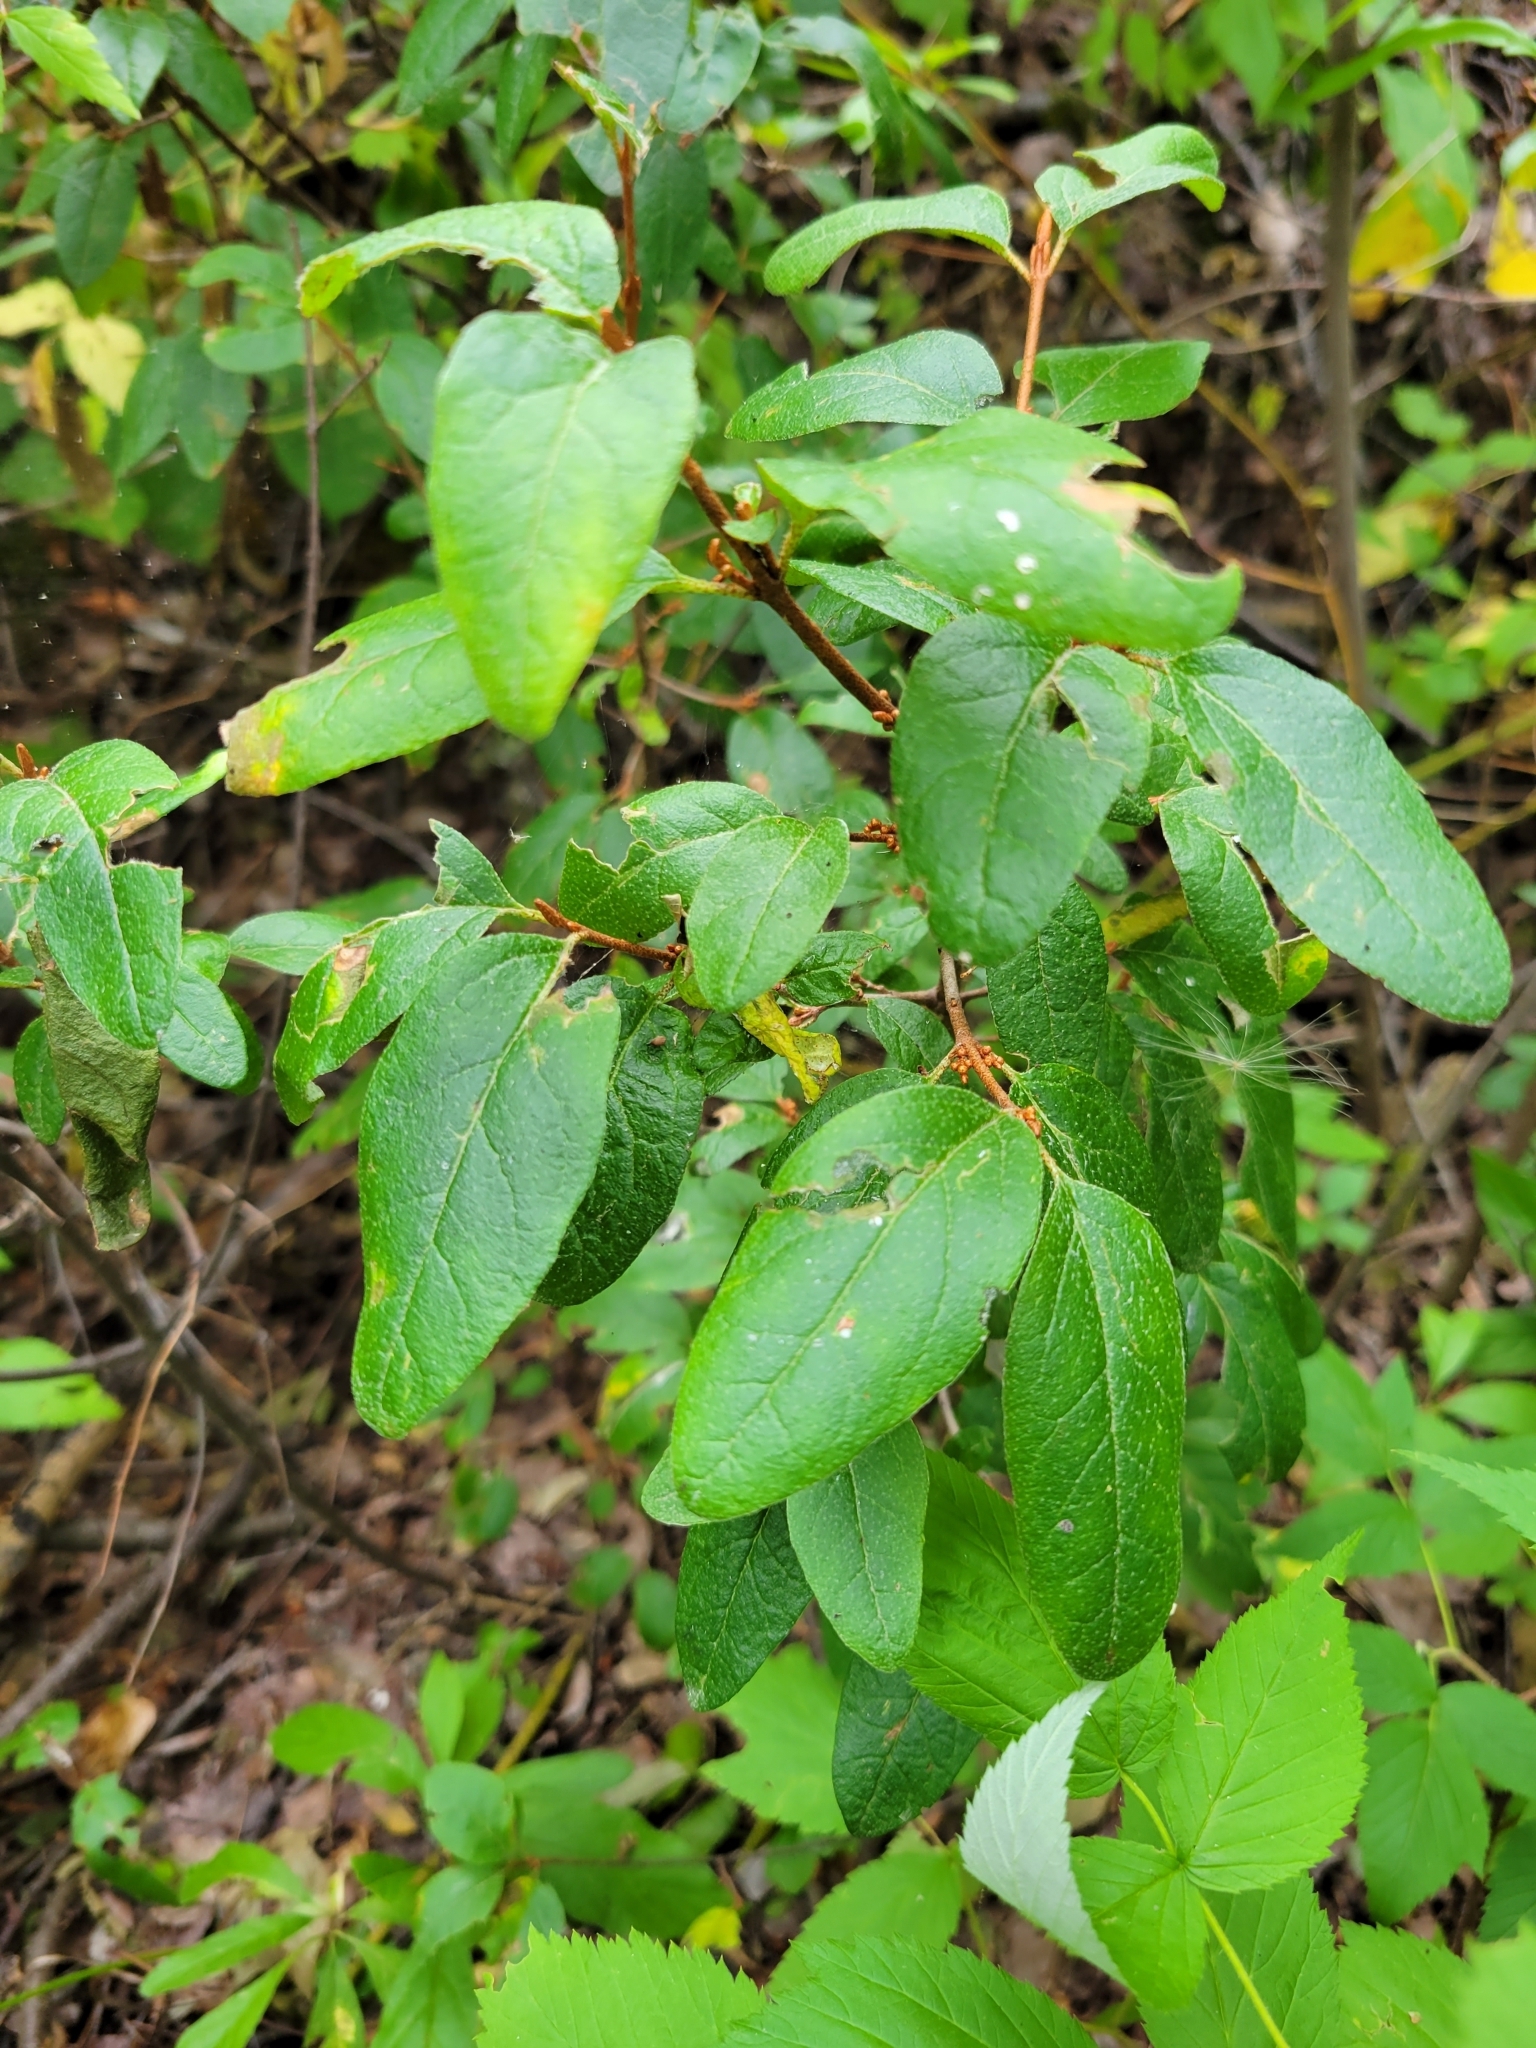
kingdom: Plantae
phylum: Tracheophyta
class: Magnoliopsida
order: Rosales
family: Elaeagnaceae
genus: Shepherdia
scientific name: Shepherdia canadensis
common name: Soapberry
